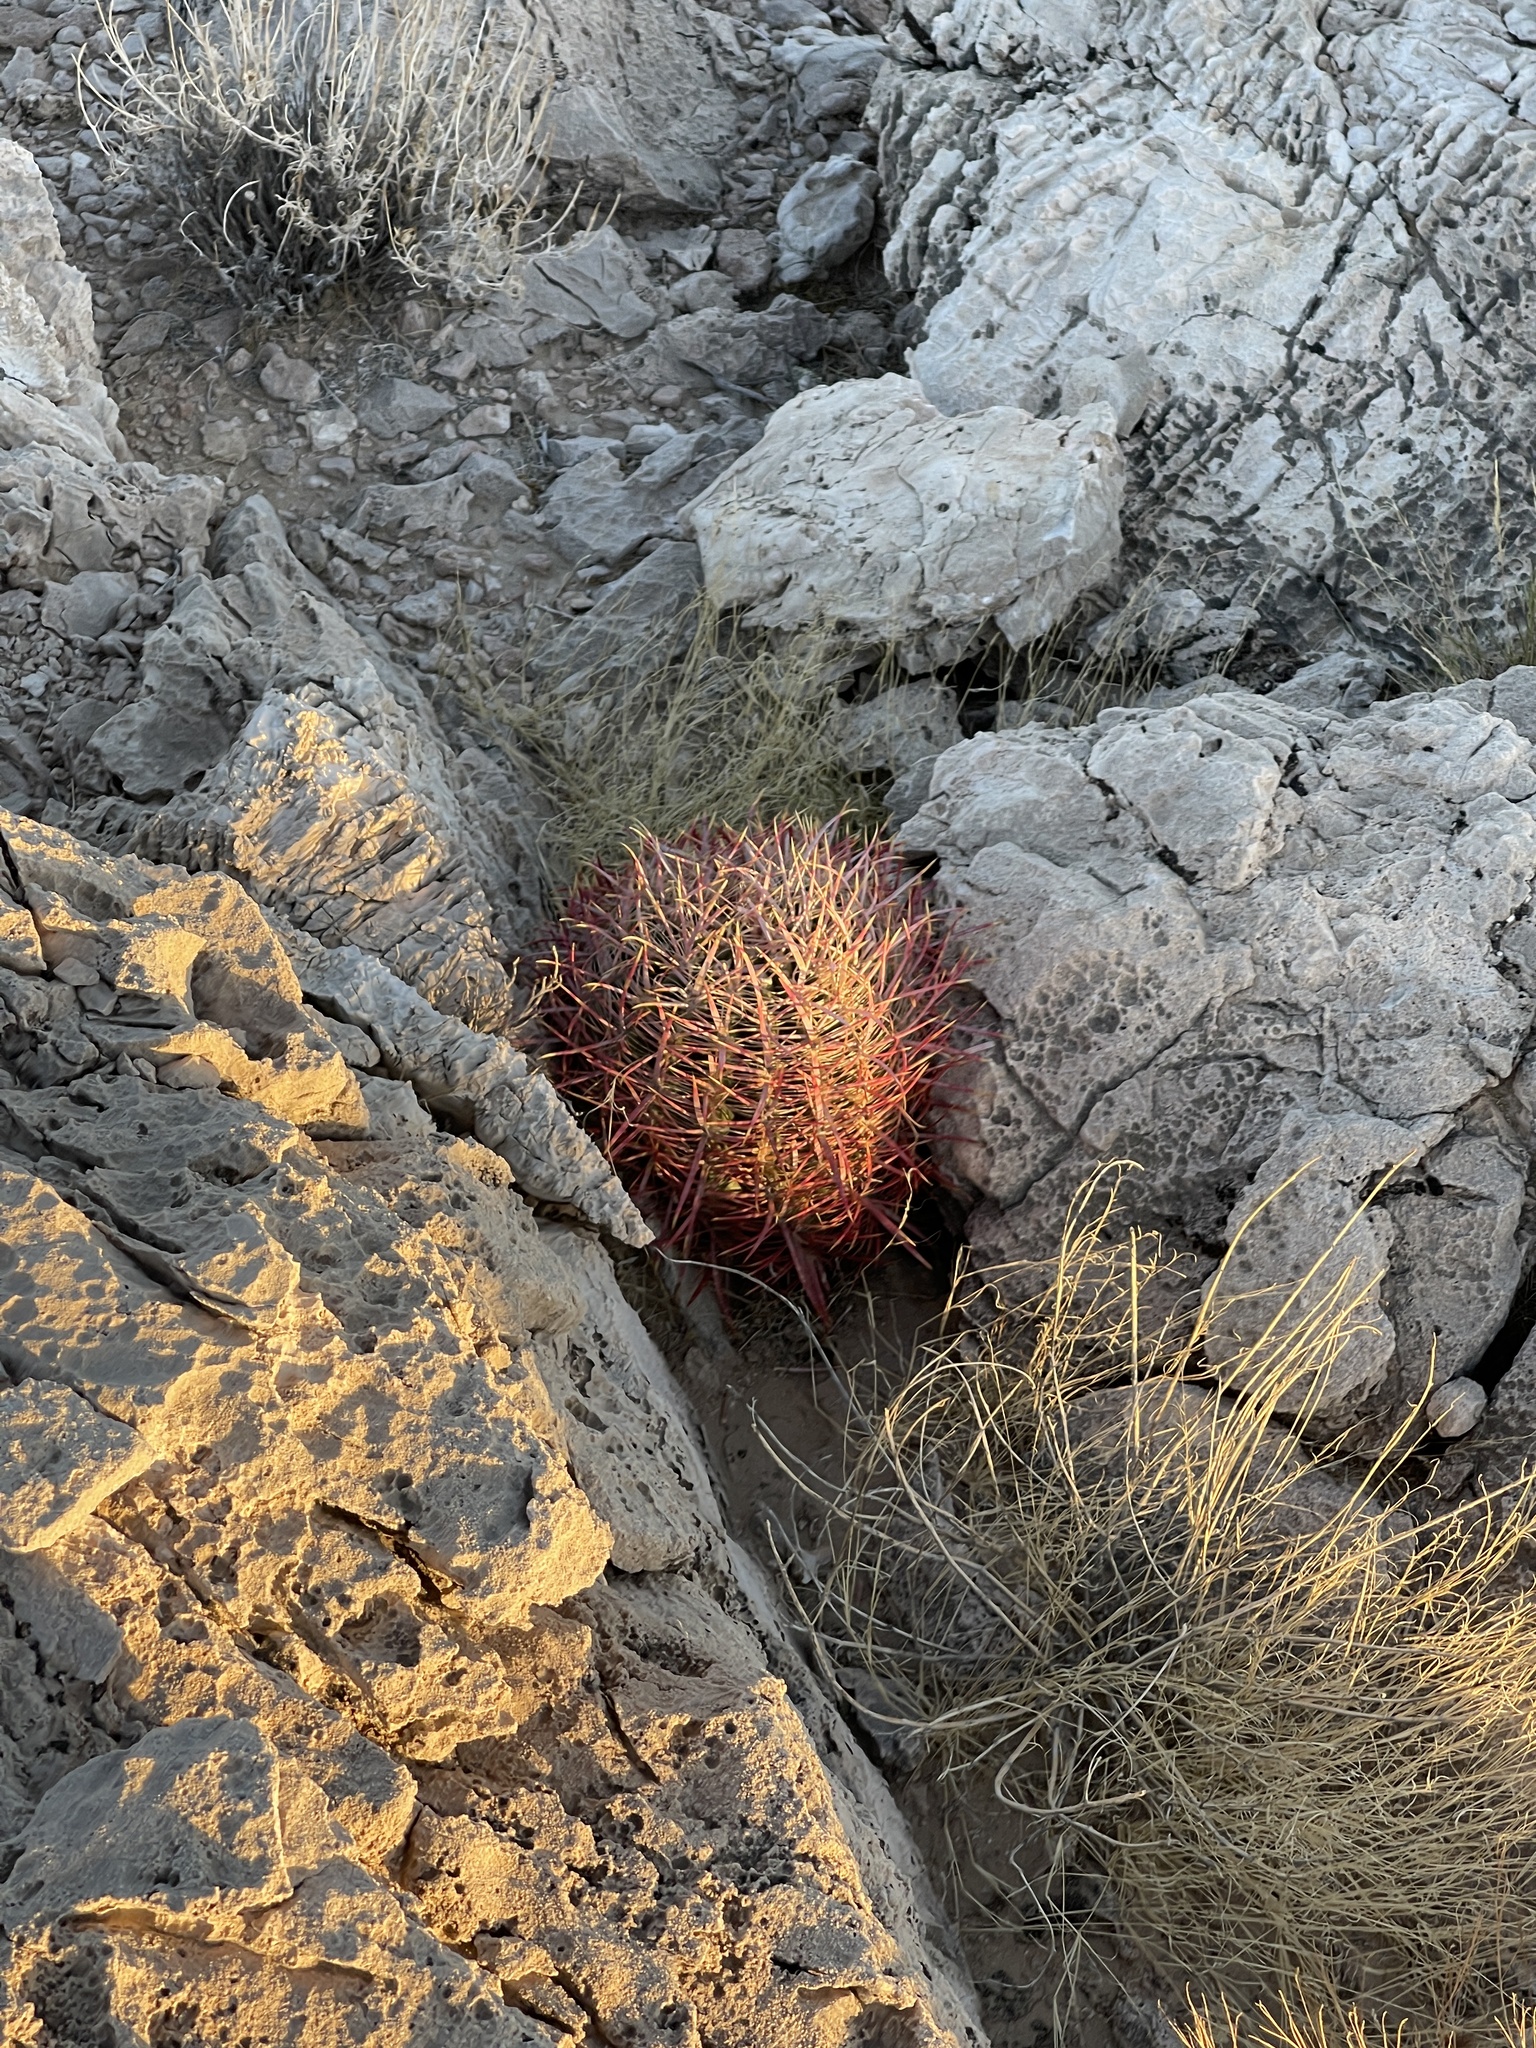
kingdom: Plantae
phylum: Tracheophyta
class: Magnoliopsida
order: Caryophyllales
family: Cactaceae
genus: Ferocactus
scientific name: Ferocactus cylindraceus
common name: California barrel cactus
